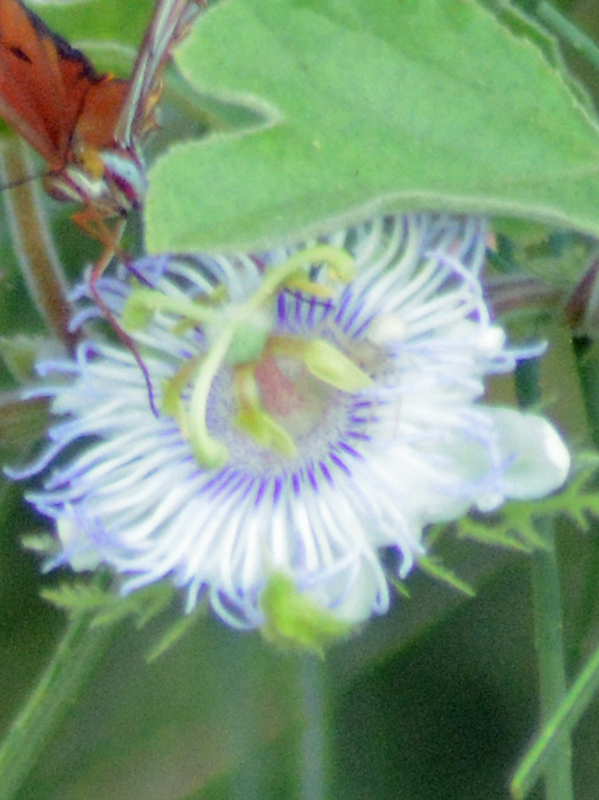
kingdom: Plantae
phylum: Tracheophyta
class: Magnoliopsida
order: Malpighiales
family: Passifloraceae
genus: Passiflora
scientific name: Passiflora foetida
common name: Fetid passionflower
